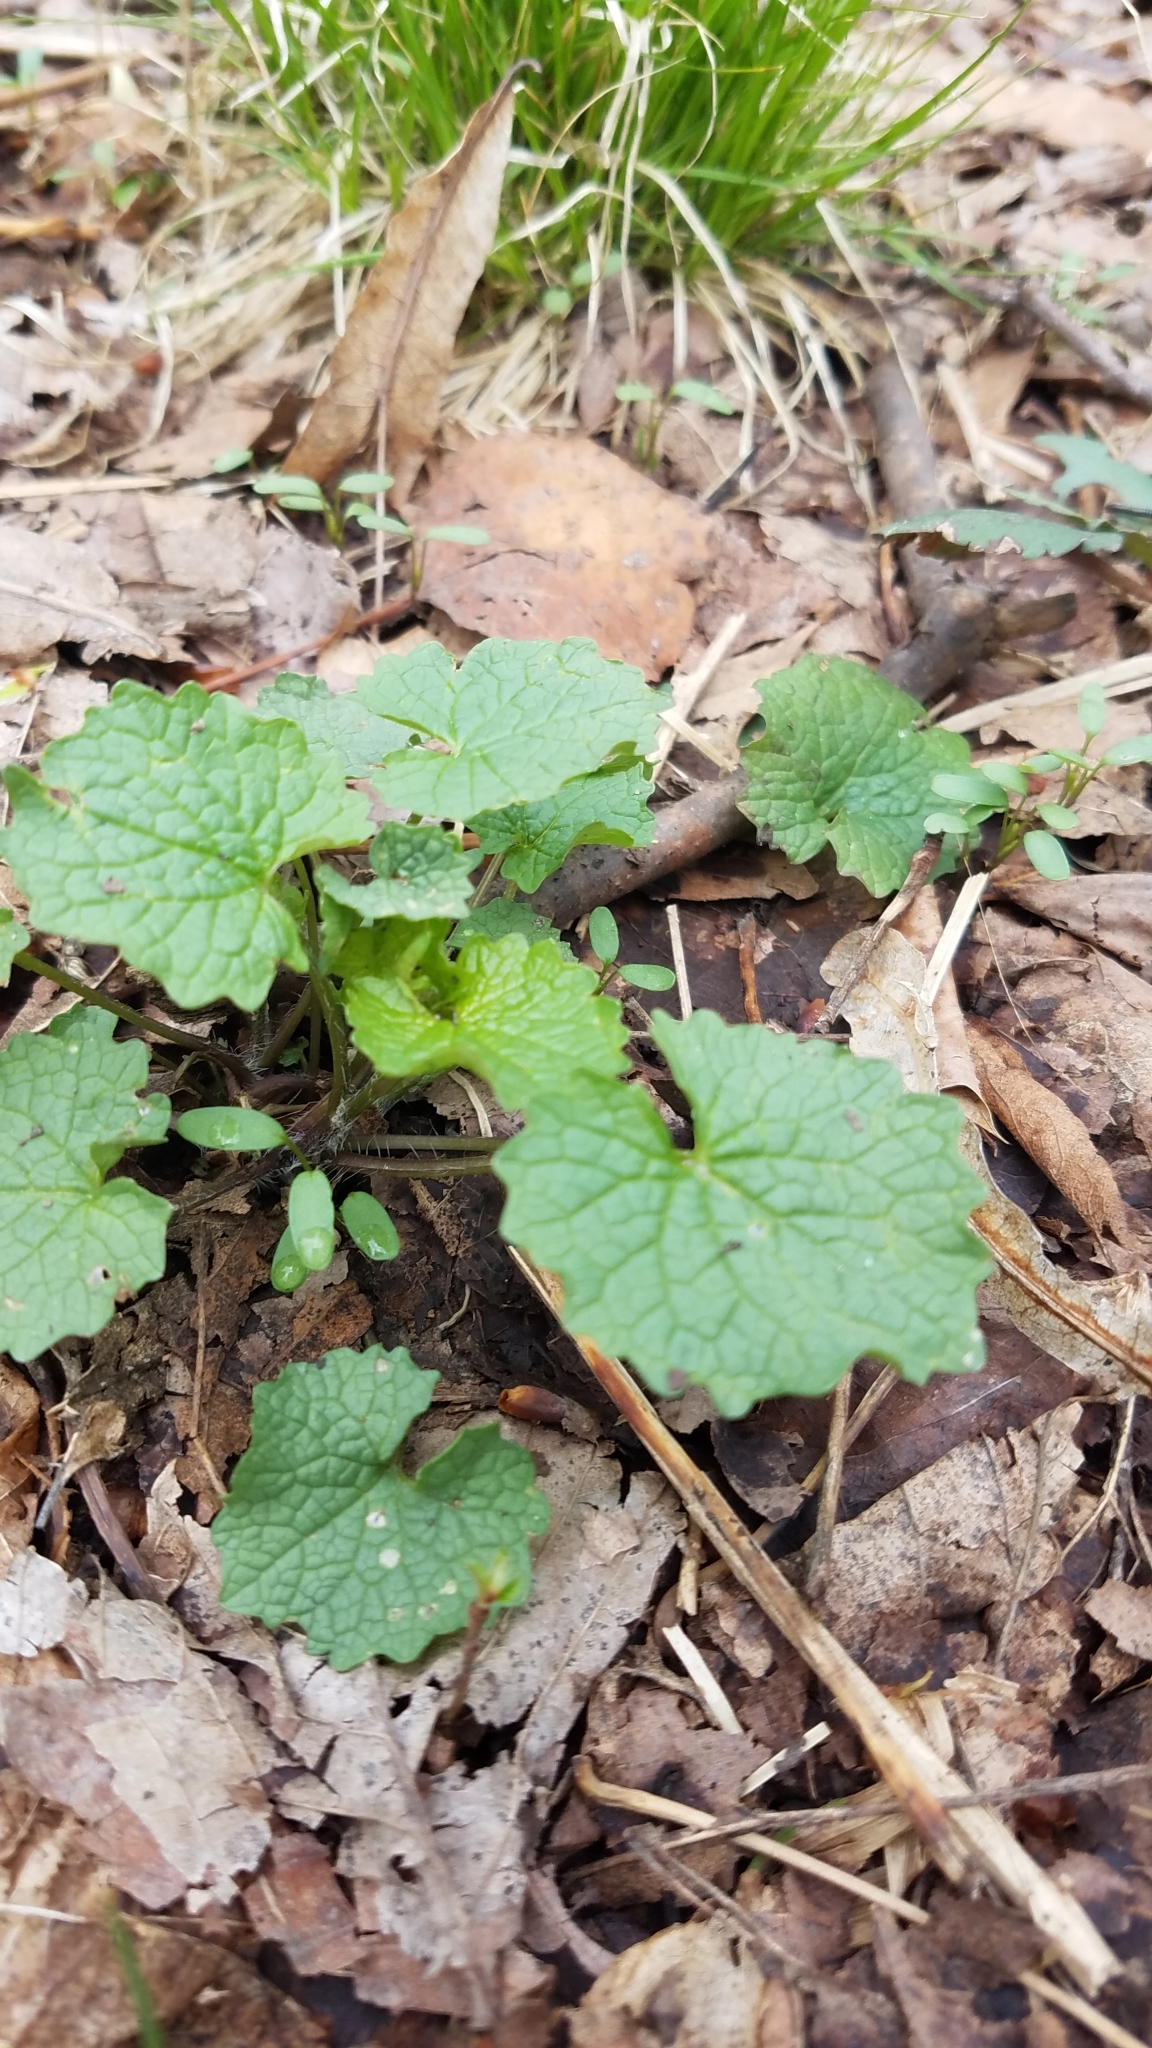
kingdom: Plantae
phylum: Tracheophyta
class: Magnoliopsida
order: Brassicales
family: Brassicaceae
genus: Alliaria
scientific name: Alliaria petiolata
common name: Garlic mustard
